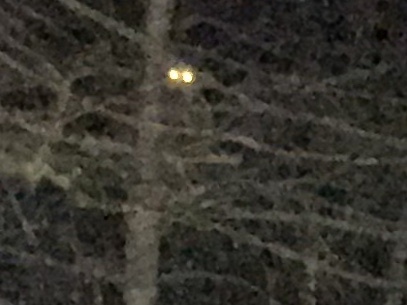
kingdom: Animalia
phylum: Chordata
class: Mammalia
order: Carnivora
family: Procyonidae
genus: Procyon
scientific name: Procyon lotor
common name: Raccoon
